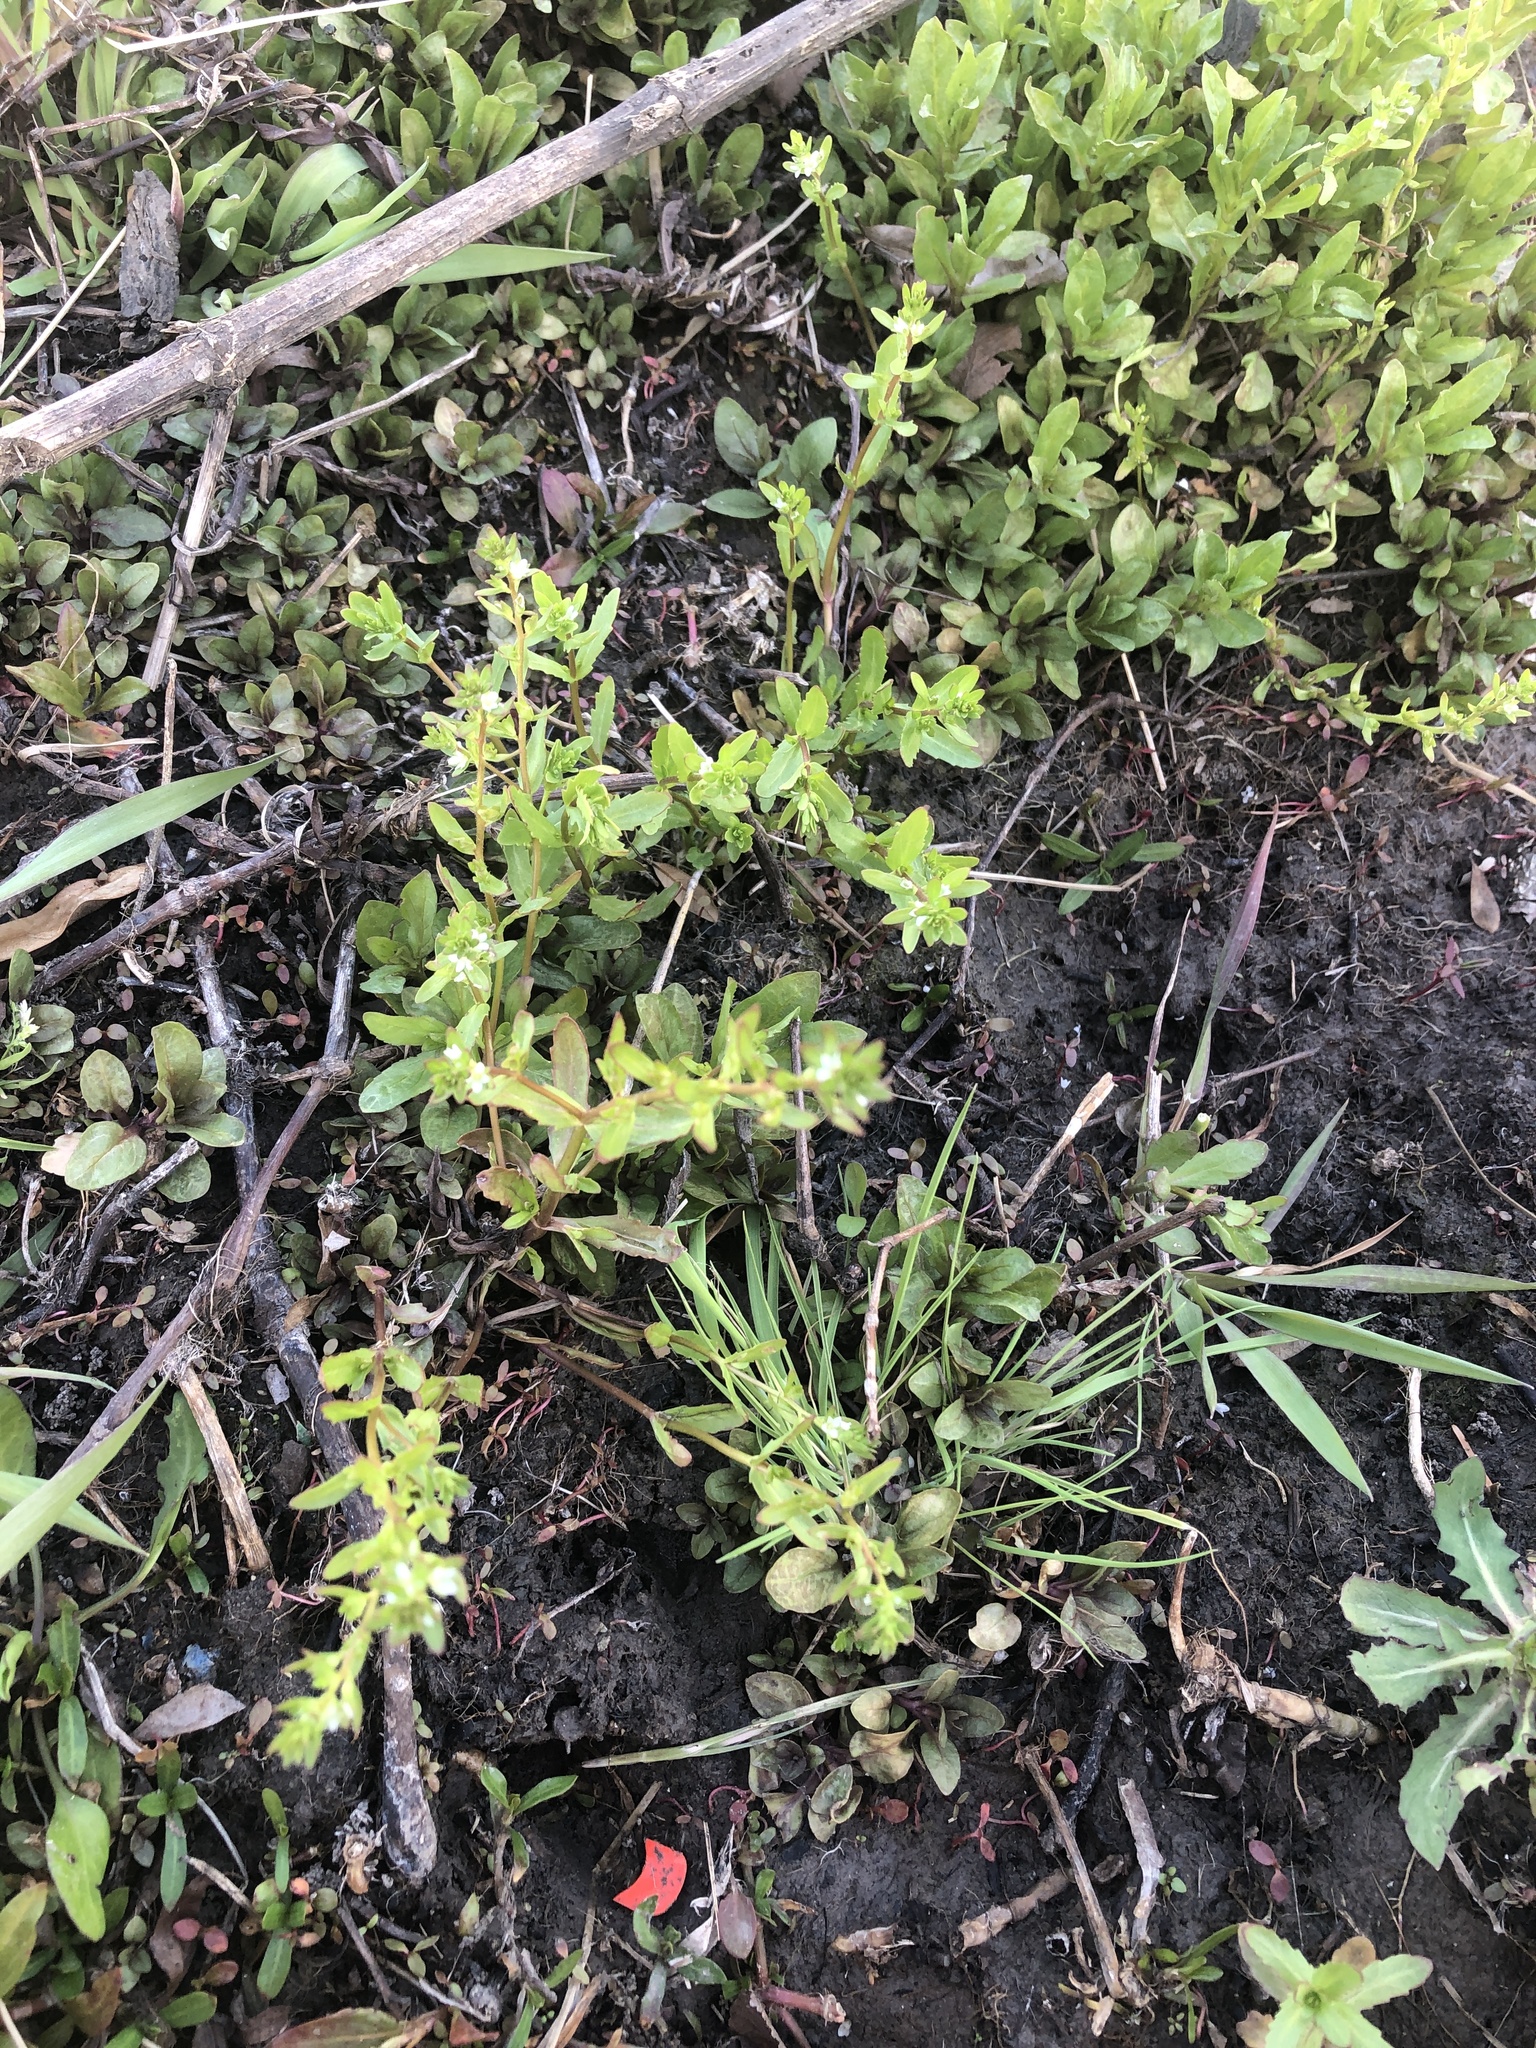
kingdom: Plantae
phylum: Tracheophyta
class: Magnoliopsida
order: Lamiales
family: Plantaginaceae
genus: Veronica
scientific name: Veronica peregrina
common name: Neckweed
